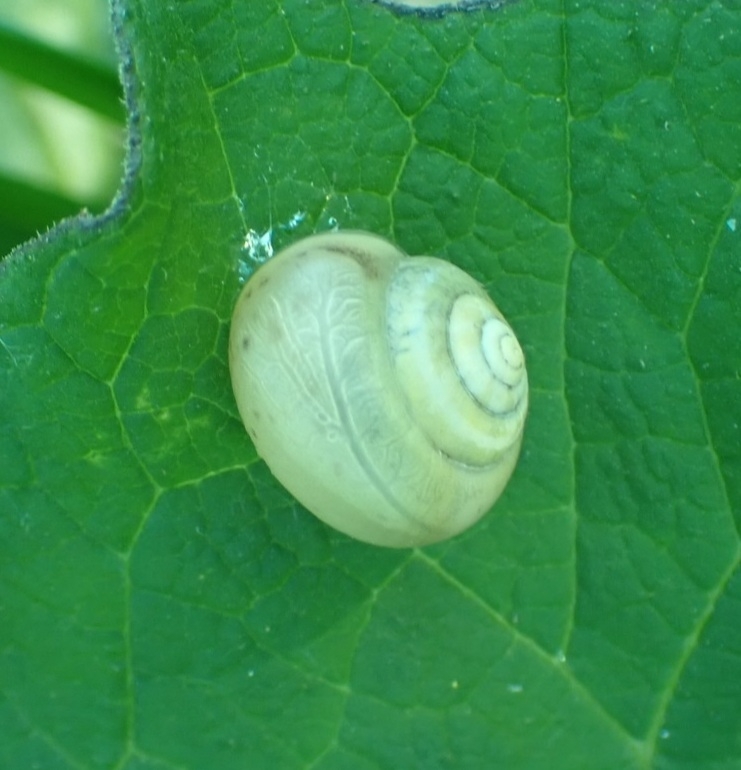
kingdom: Animalia
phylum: Mollusca
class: Gastropoda
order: Stylommatophora
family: Camaenidae
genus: Fruticicola
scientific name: Fruticicola fruticum
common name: Bush snail
